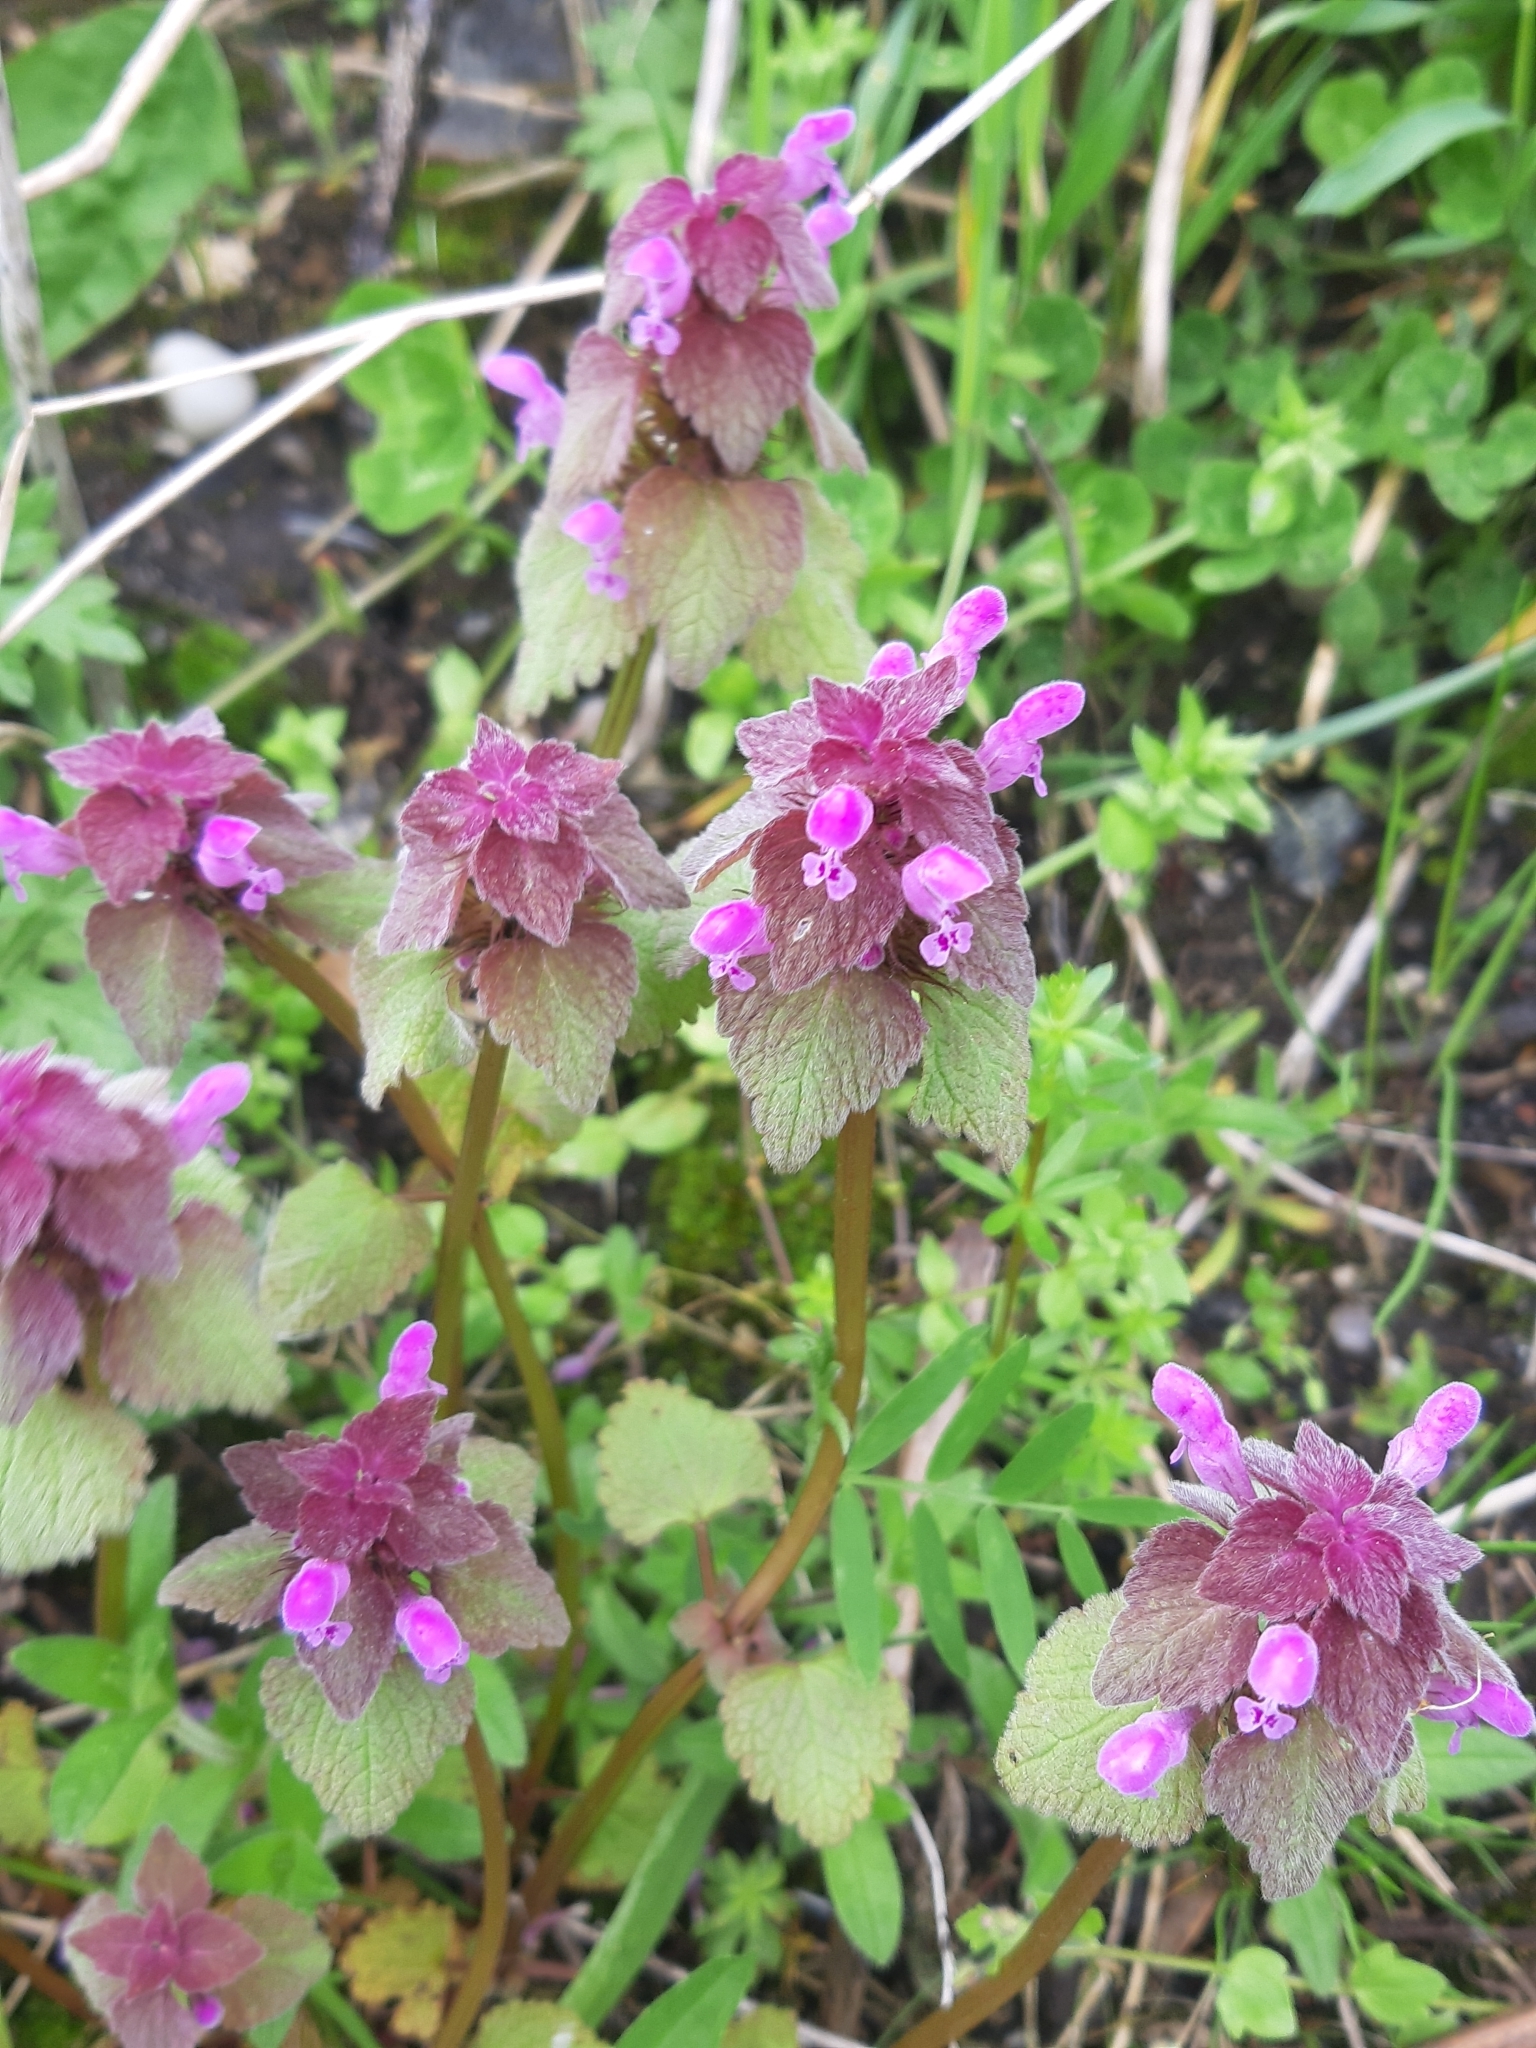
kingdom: Plantae
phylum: Tracheophyta
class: Magnoliopsida
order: Lamiales
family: Lamiaceae
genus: Lamium
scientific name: Lamium purpureum
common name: Red dead-nettle
